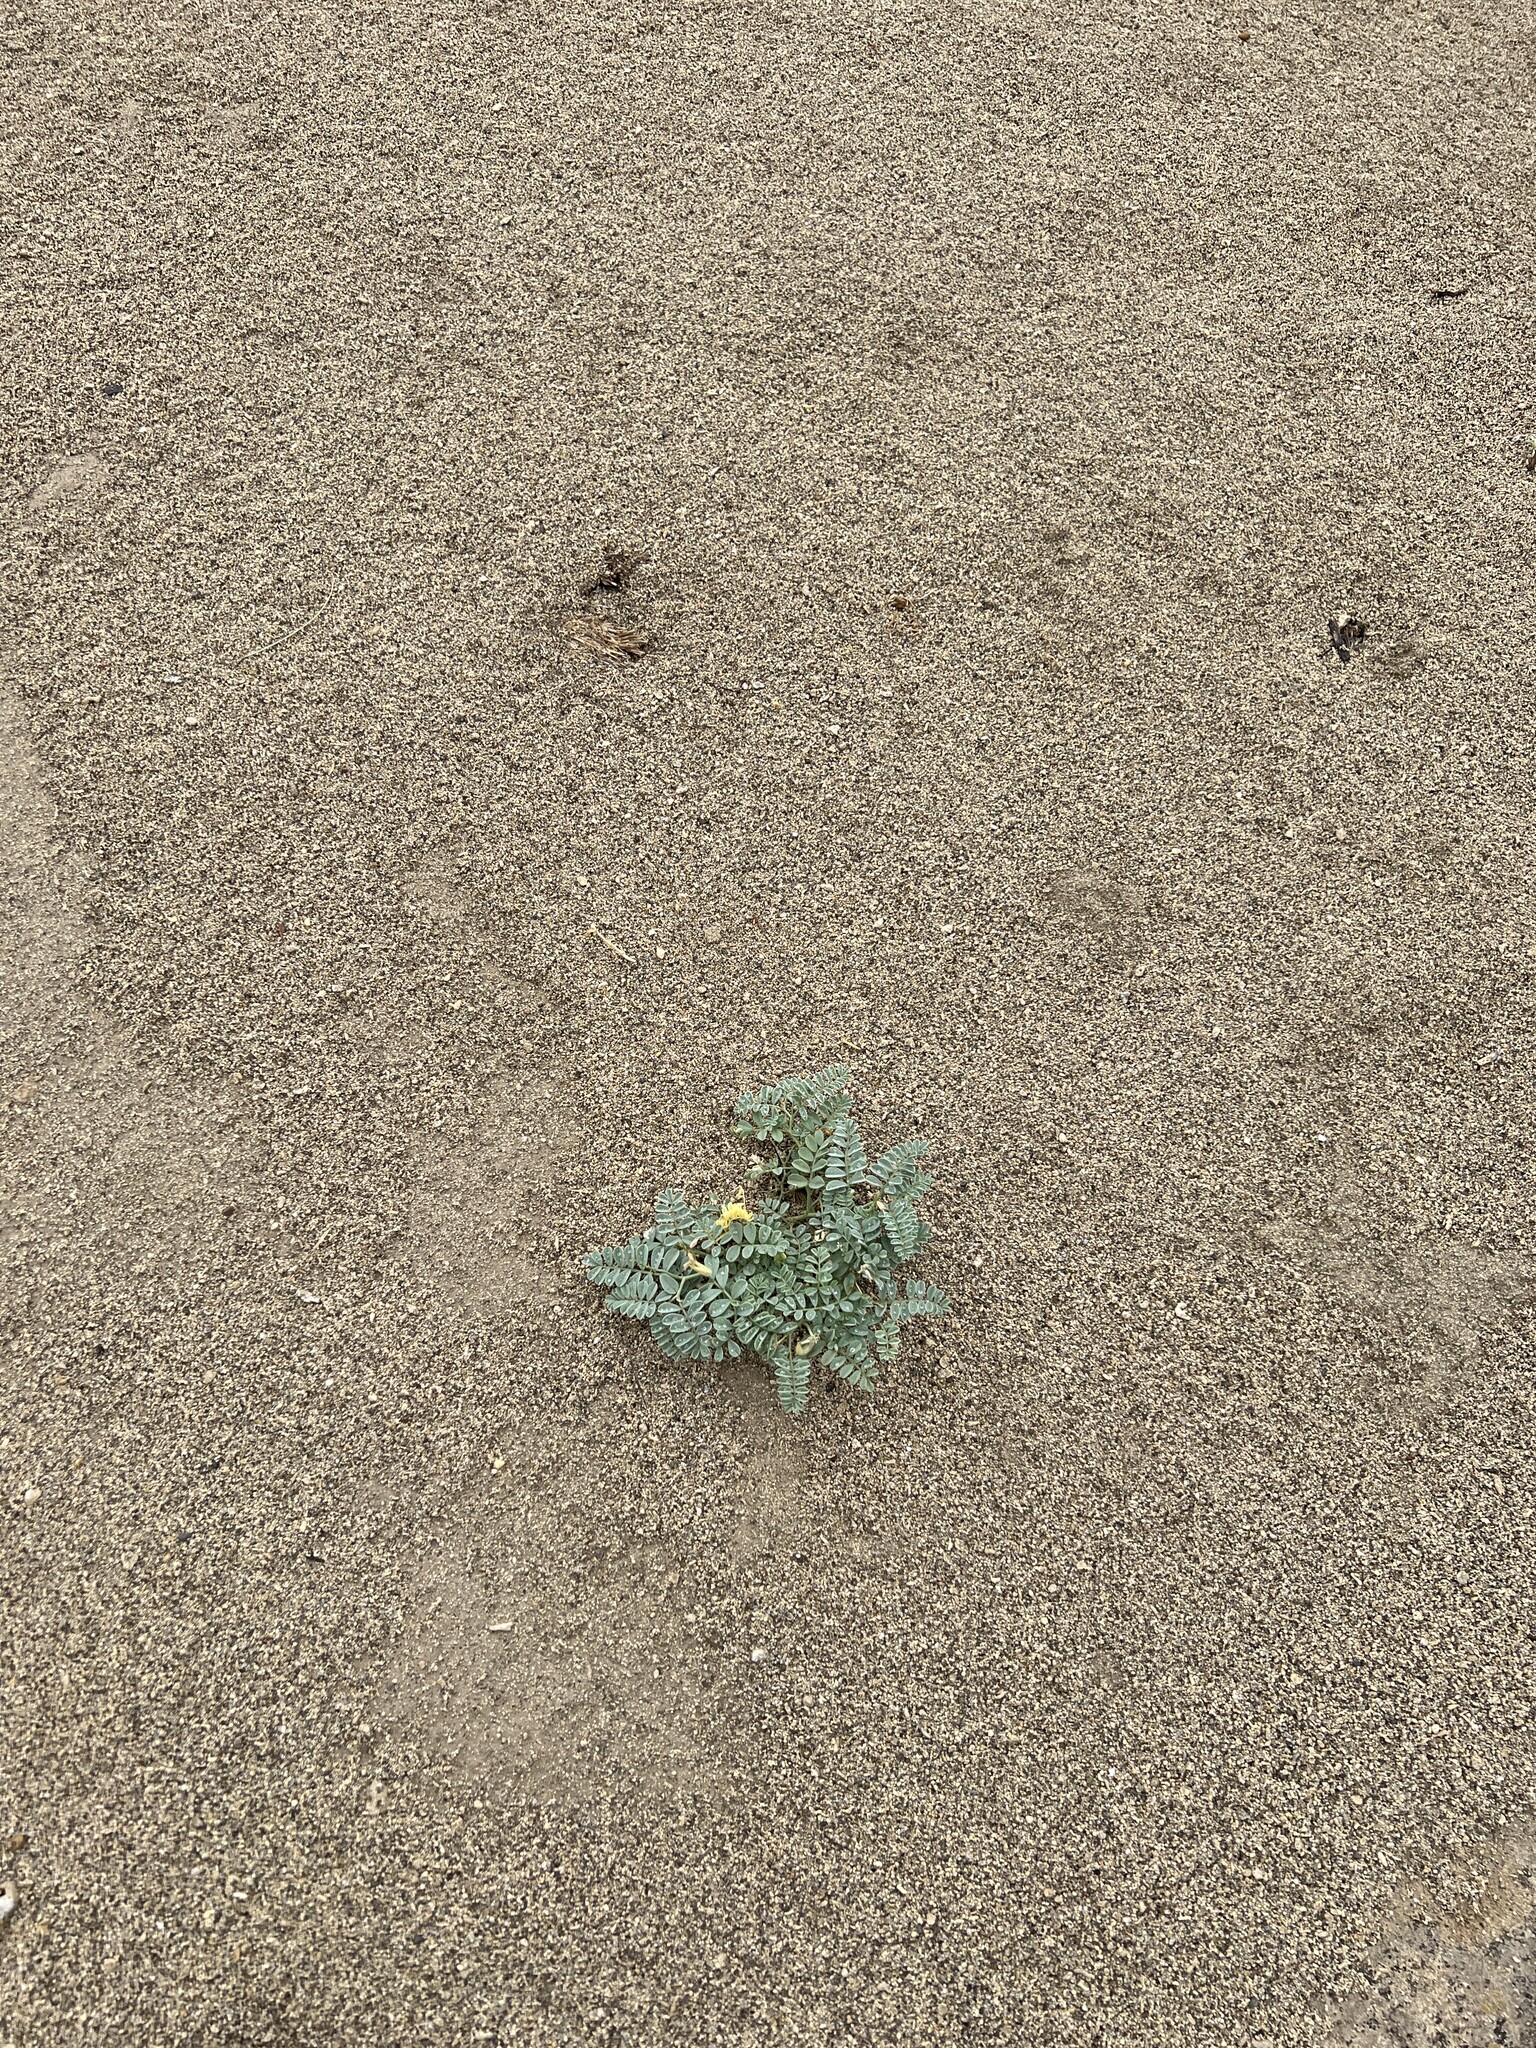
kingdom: Plantae
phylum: Tracheophyta
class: Magnoliopsida
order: Fabales
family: Fabaceae
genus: Astragalus
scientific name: Astragalus camptopus
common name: Bruneau milk-vetch
